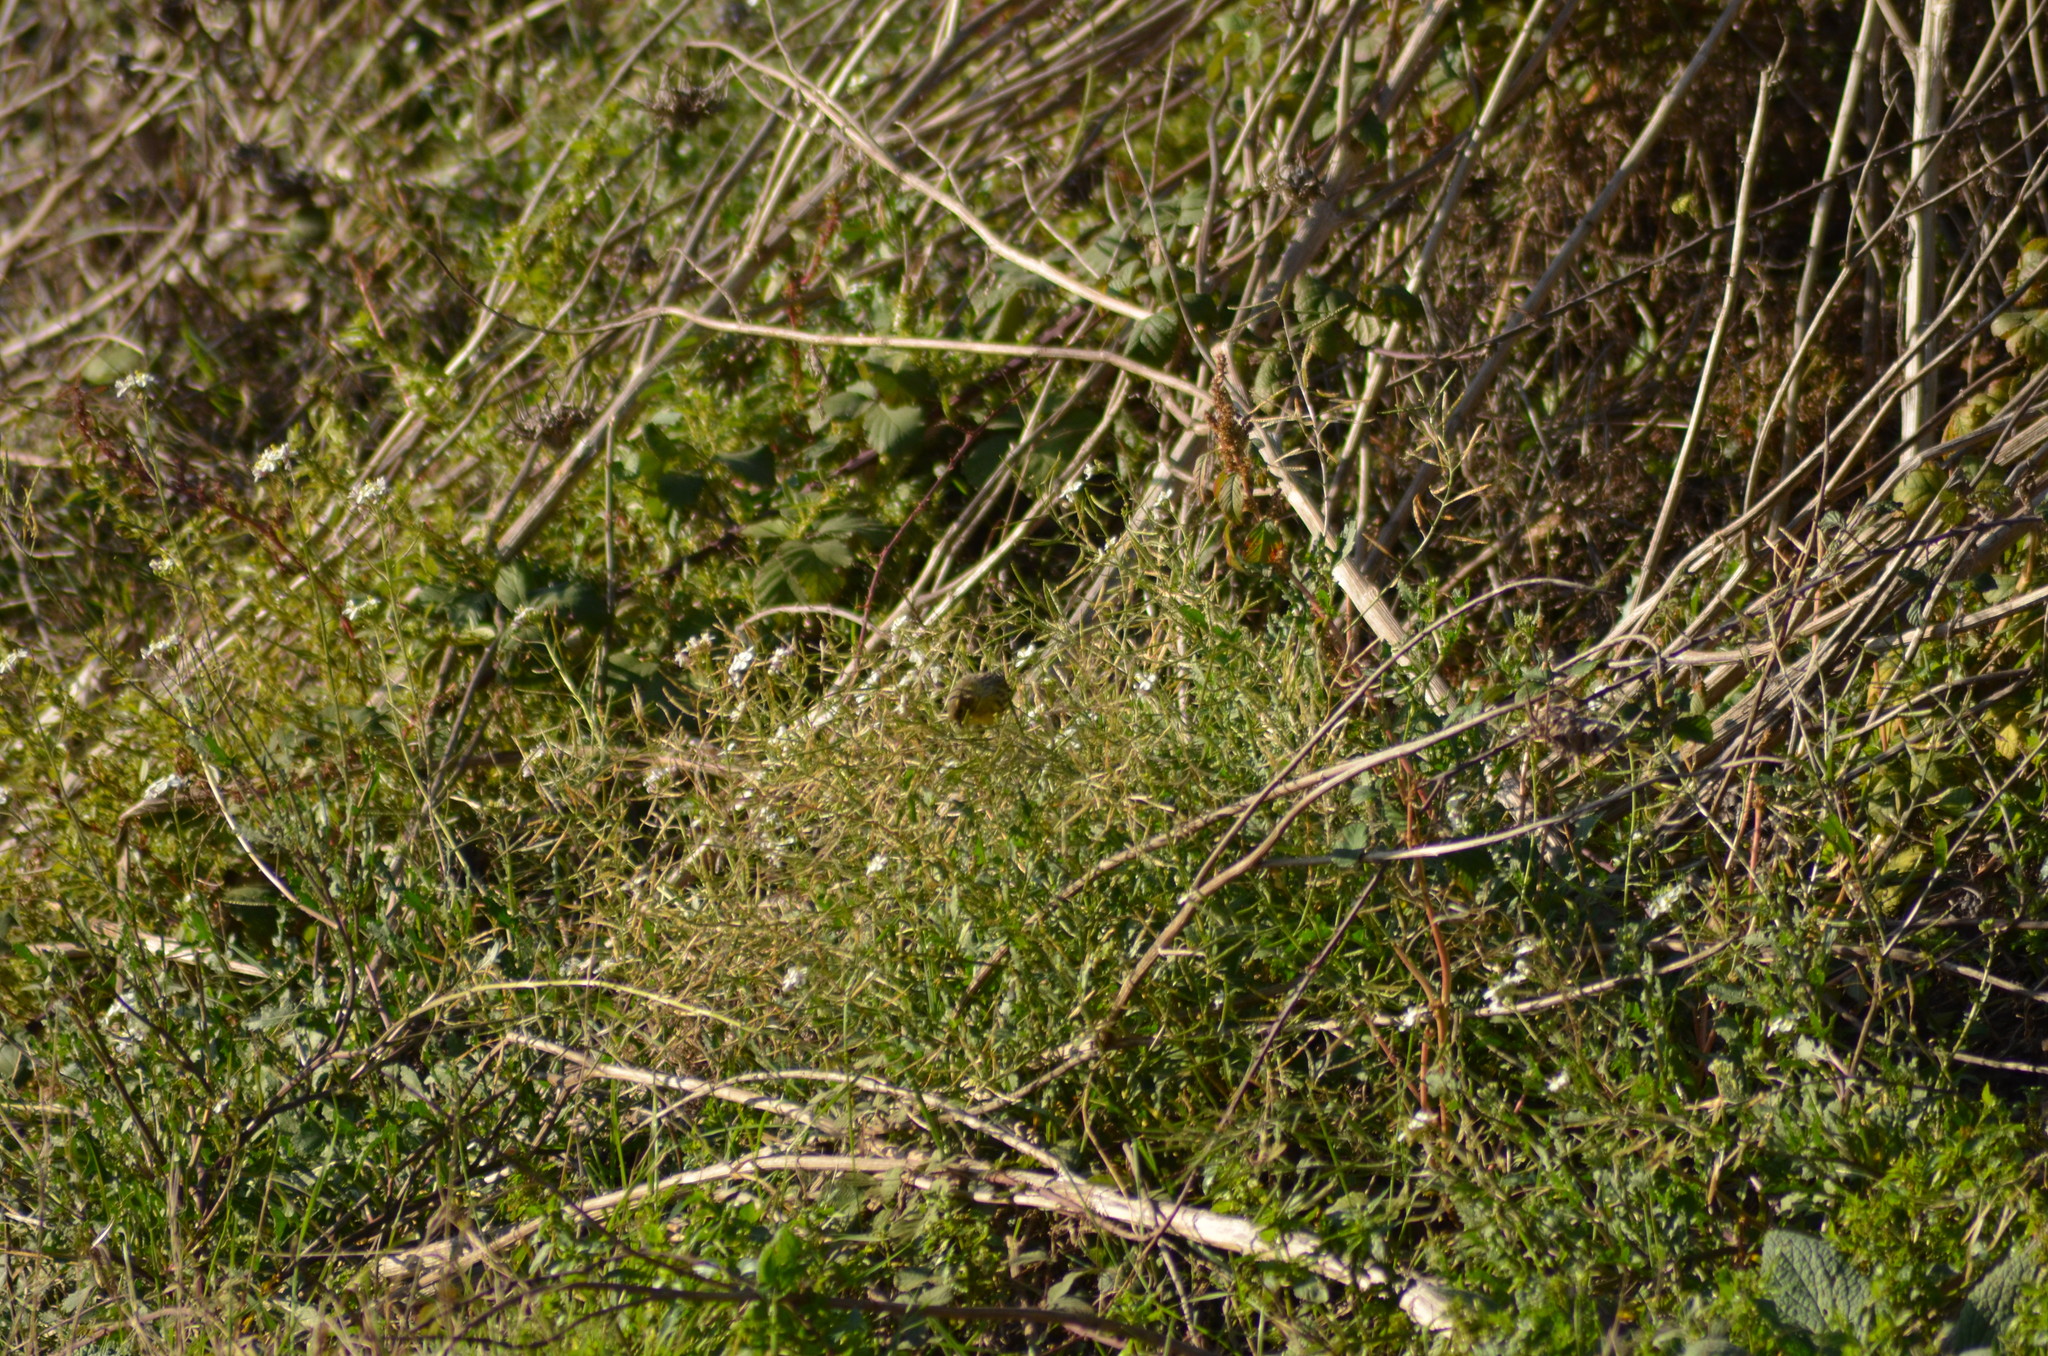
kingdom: Animalia
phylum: Chordata
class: Aves
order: Passeriformes
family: Fringillidae
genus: Serinus
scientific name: Serinus serinus
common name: European serin
